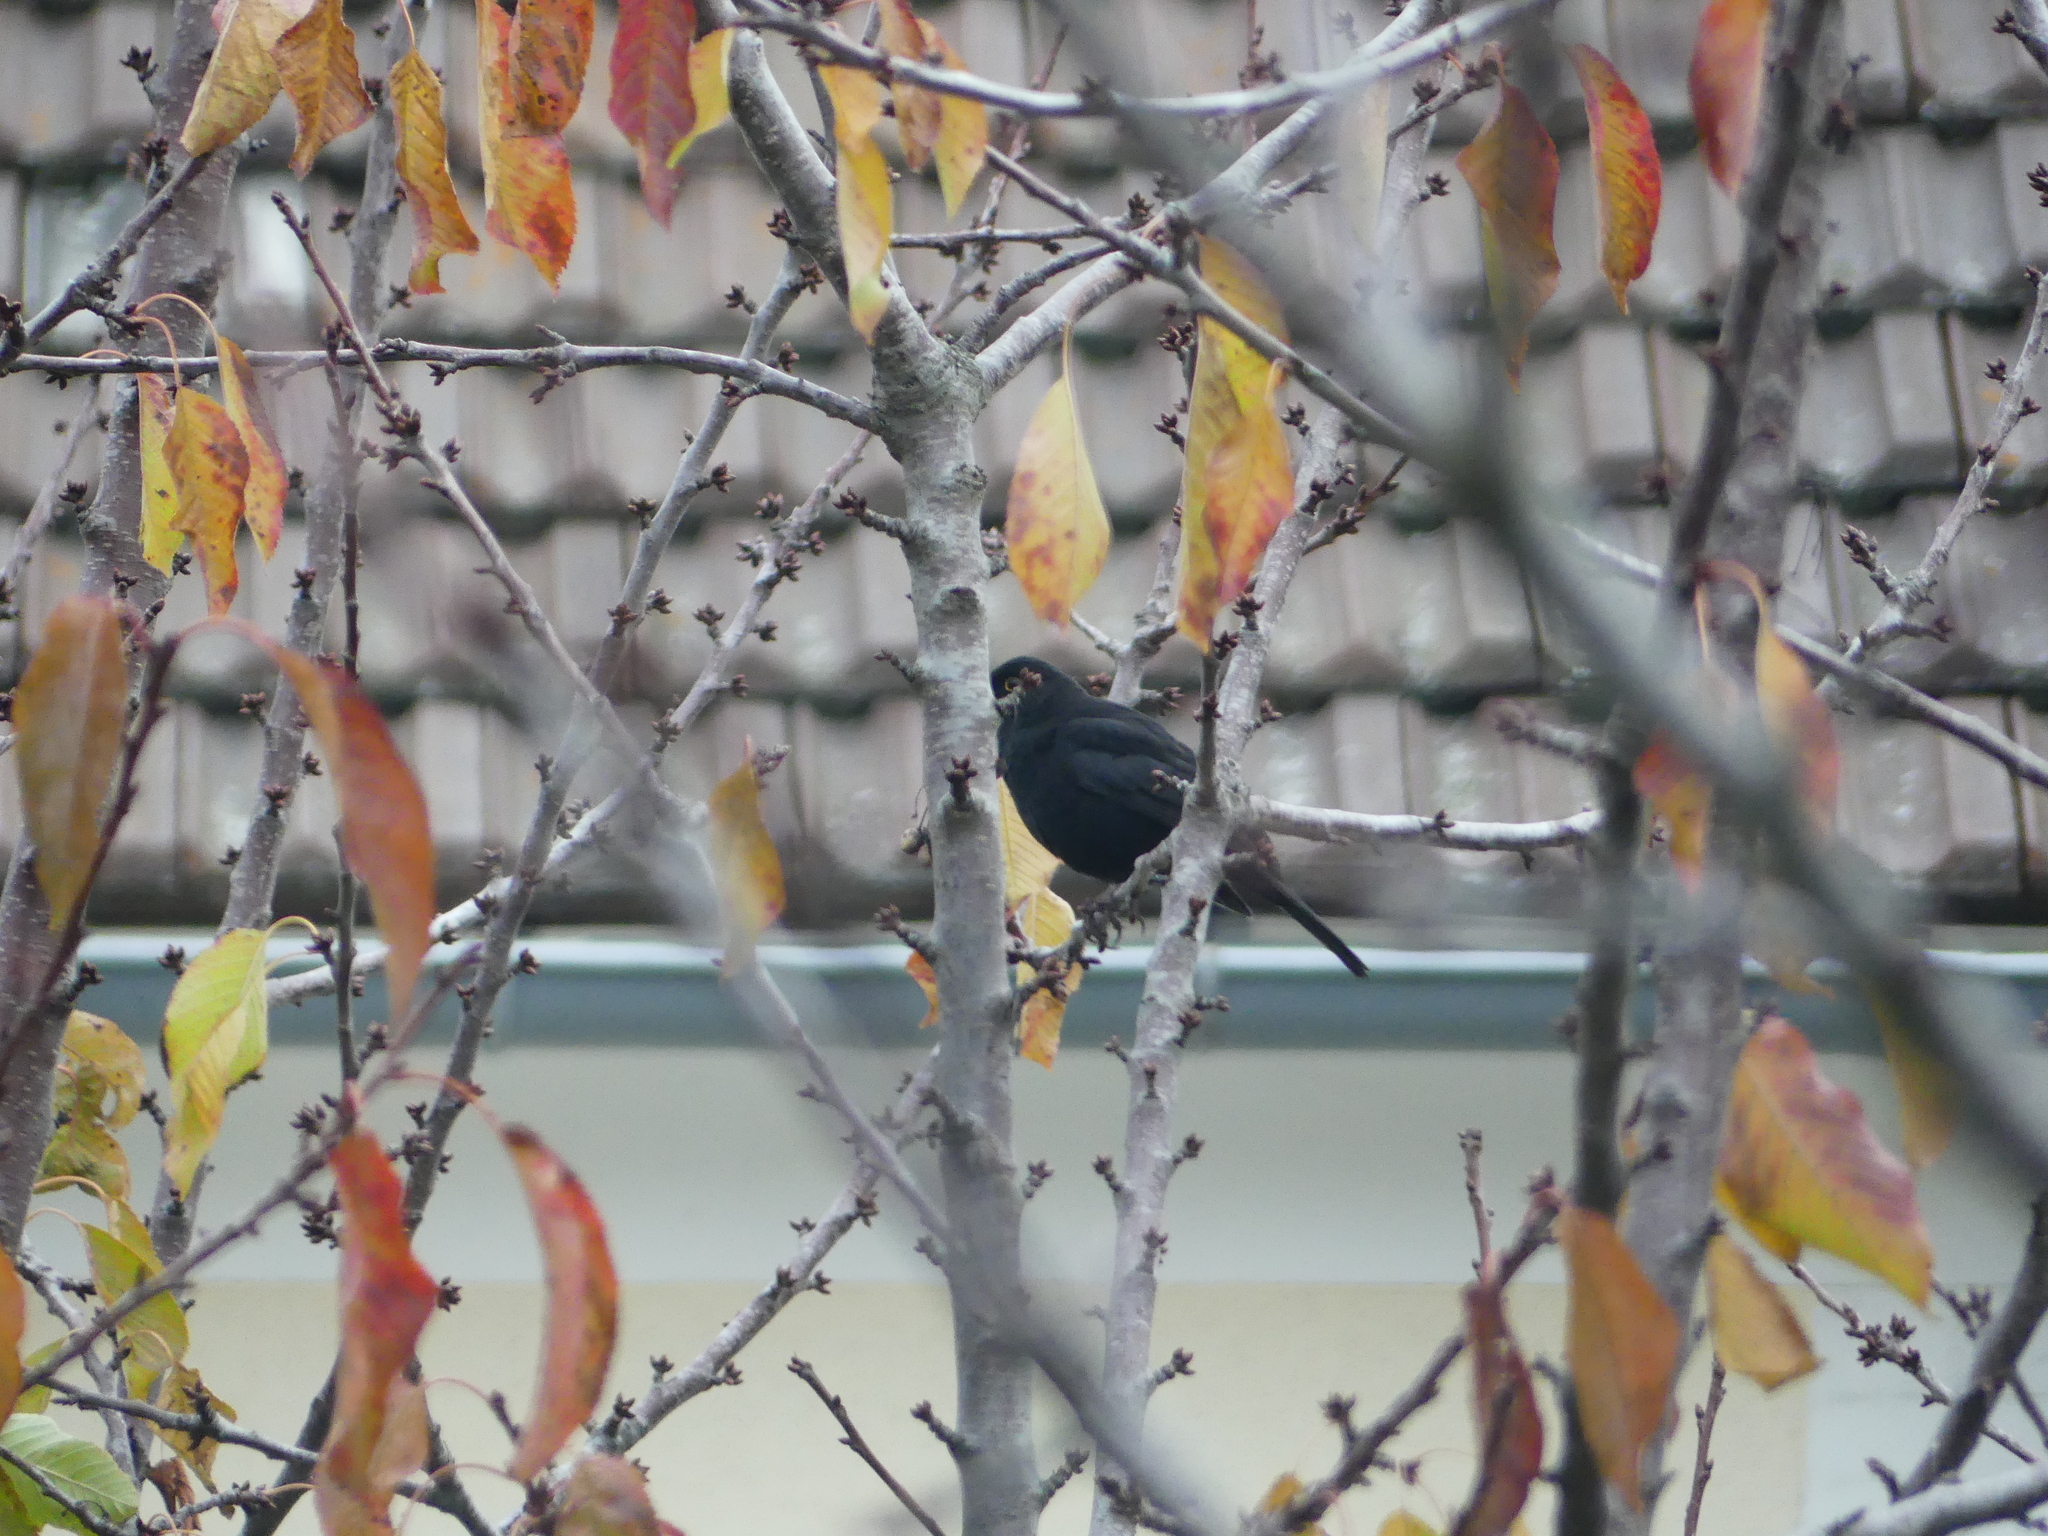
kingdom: Animalia
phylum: Chordata
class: Aves
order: Passeriformes
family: Turdidae
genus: Turdus
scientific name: Turdus merula
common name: Common blackbird
